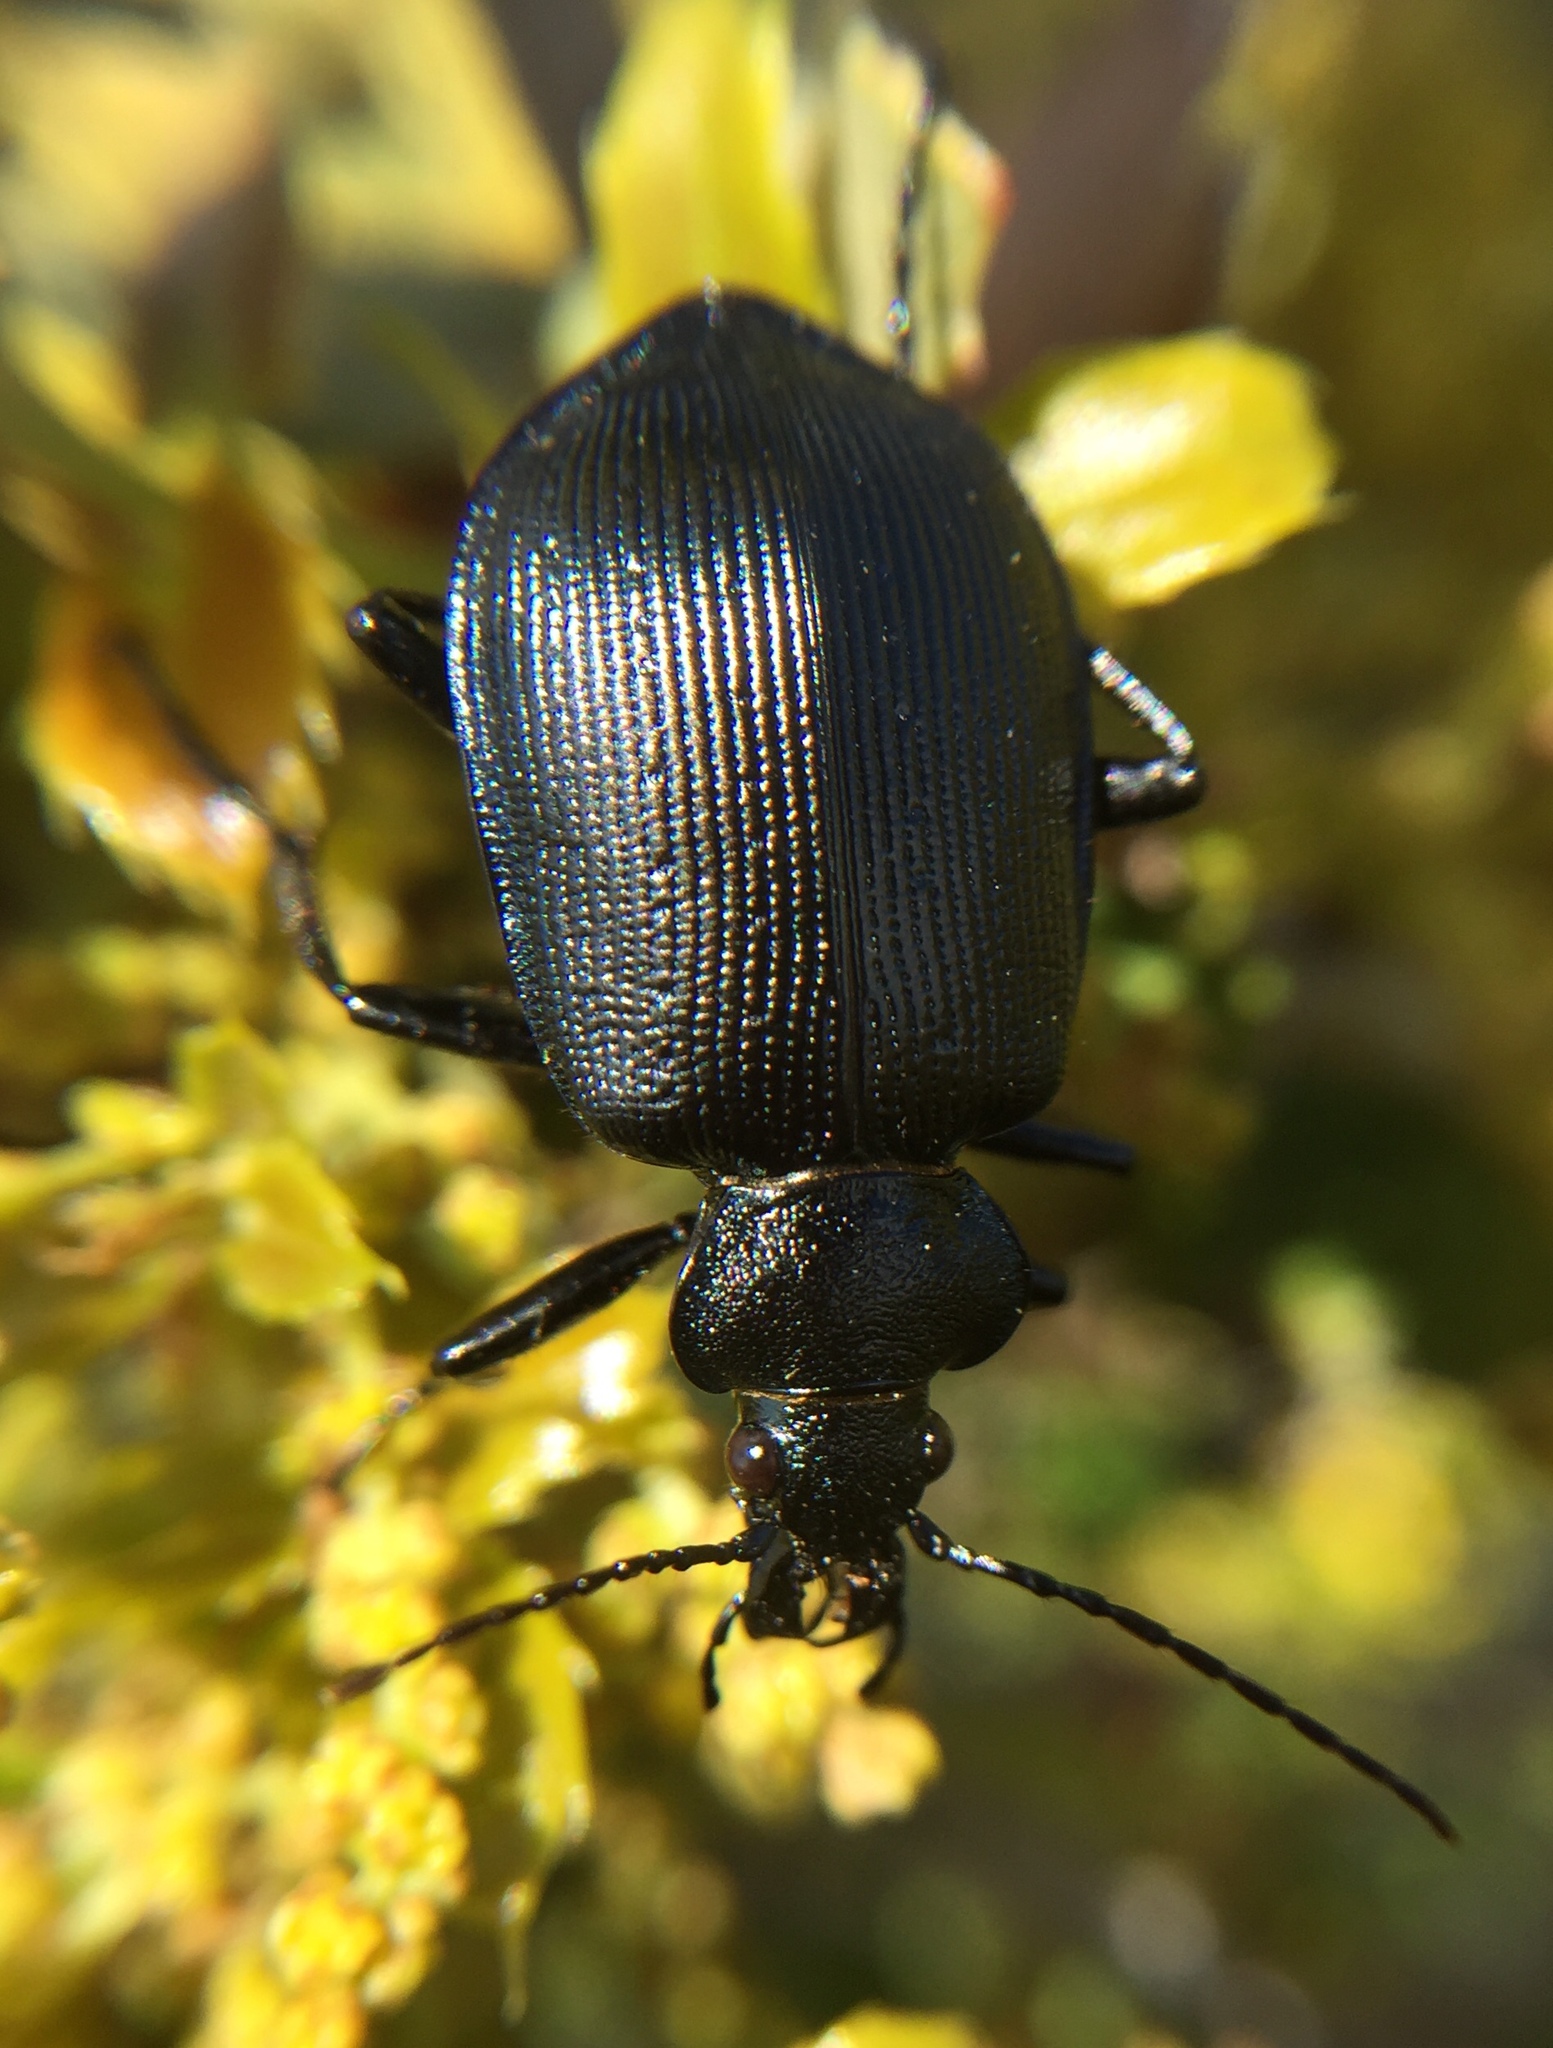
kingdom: Animalia
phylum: Arthropoda
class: Insecta
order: Coleoptera
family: Carabidae
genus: Calosoma
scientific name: Calosoma inquisitor
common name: Caterpillar-hunter
